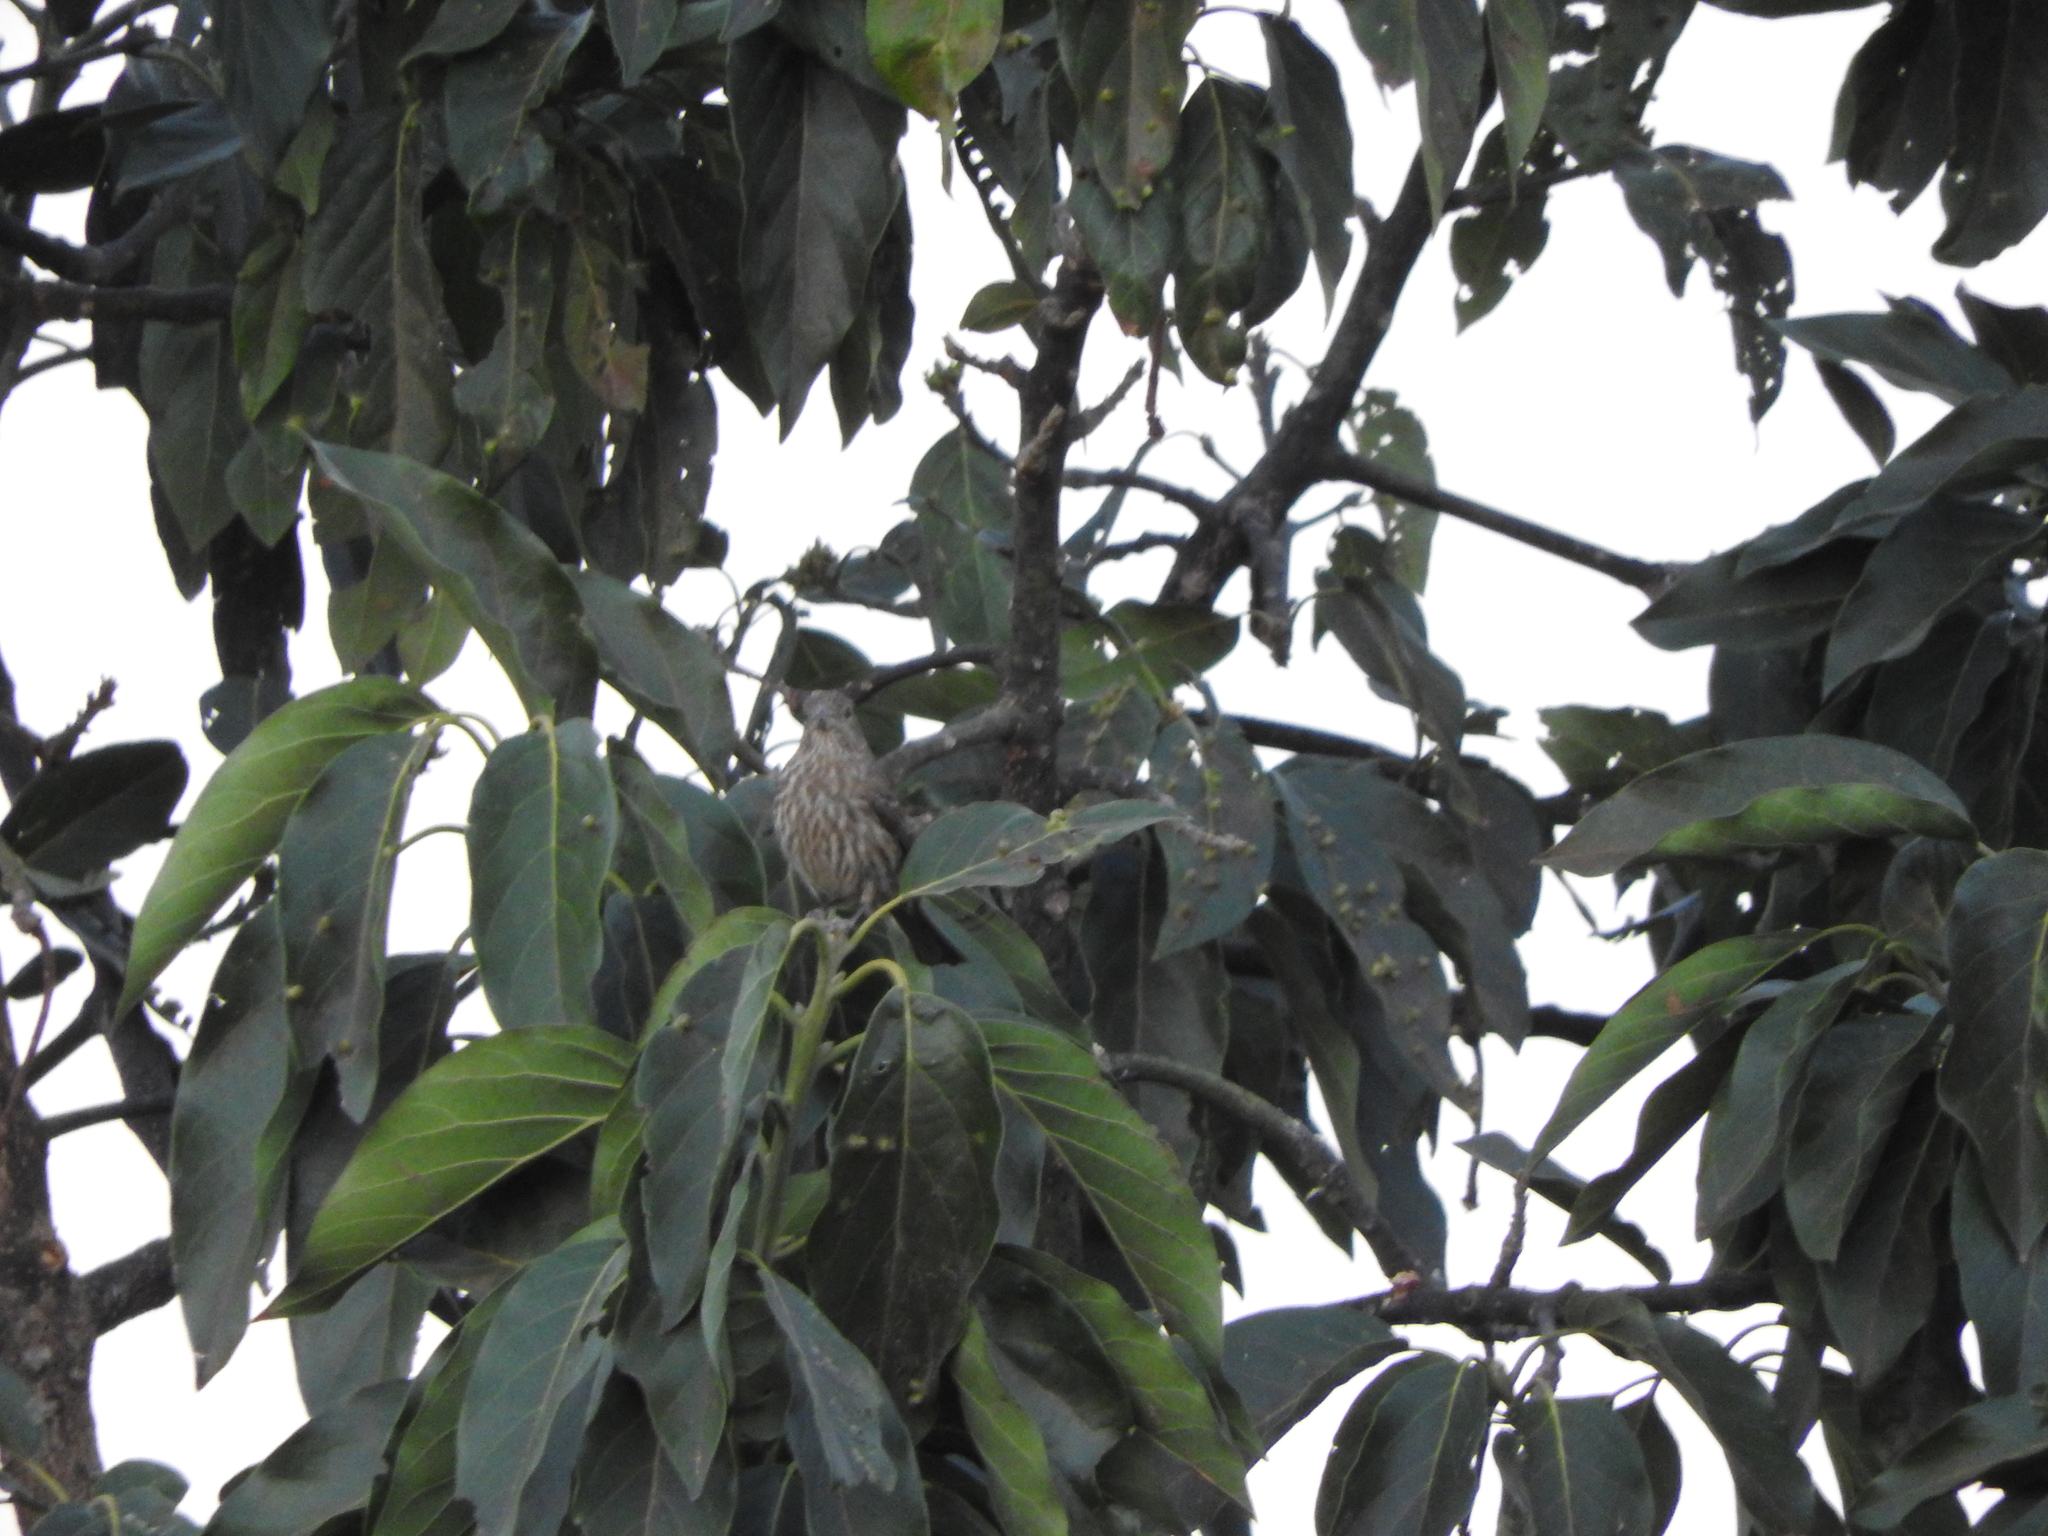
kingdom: Animalia
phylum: Chordata
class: Aves
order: Passeriformes
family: Fringillidae
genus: Haemorhous
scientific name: Haemorhous mexicanus
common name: House finch
